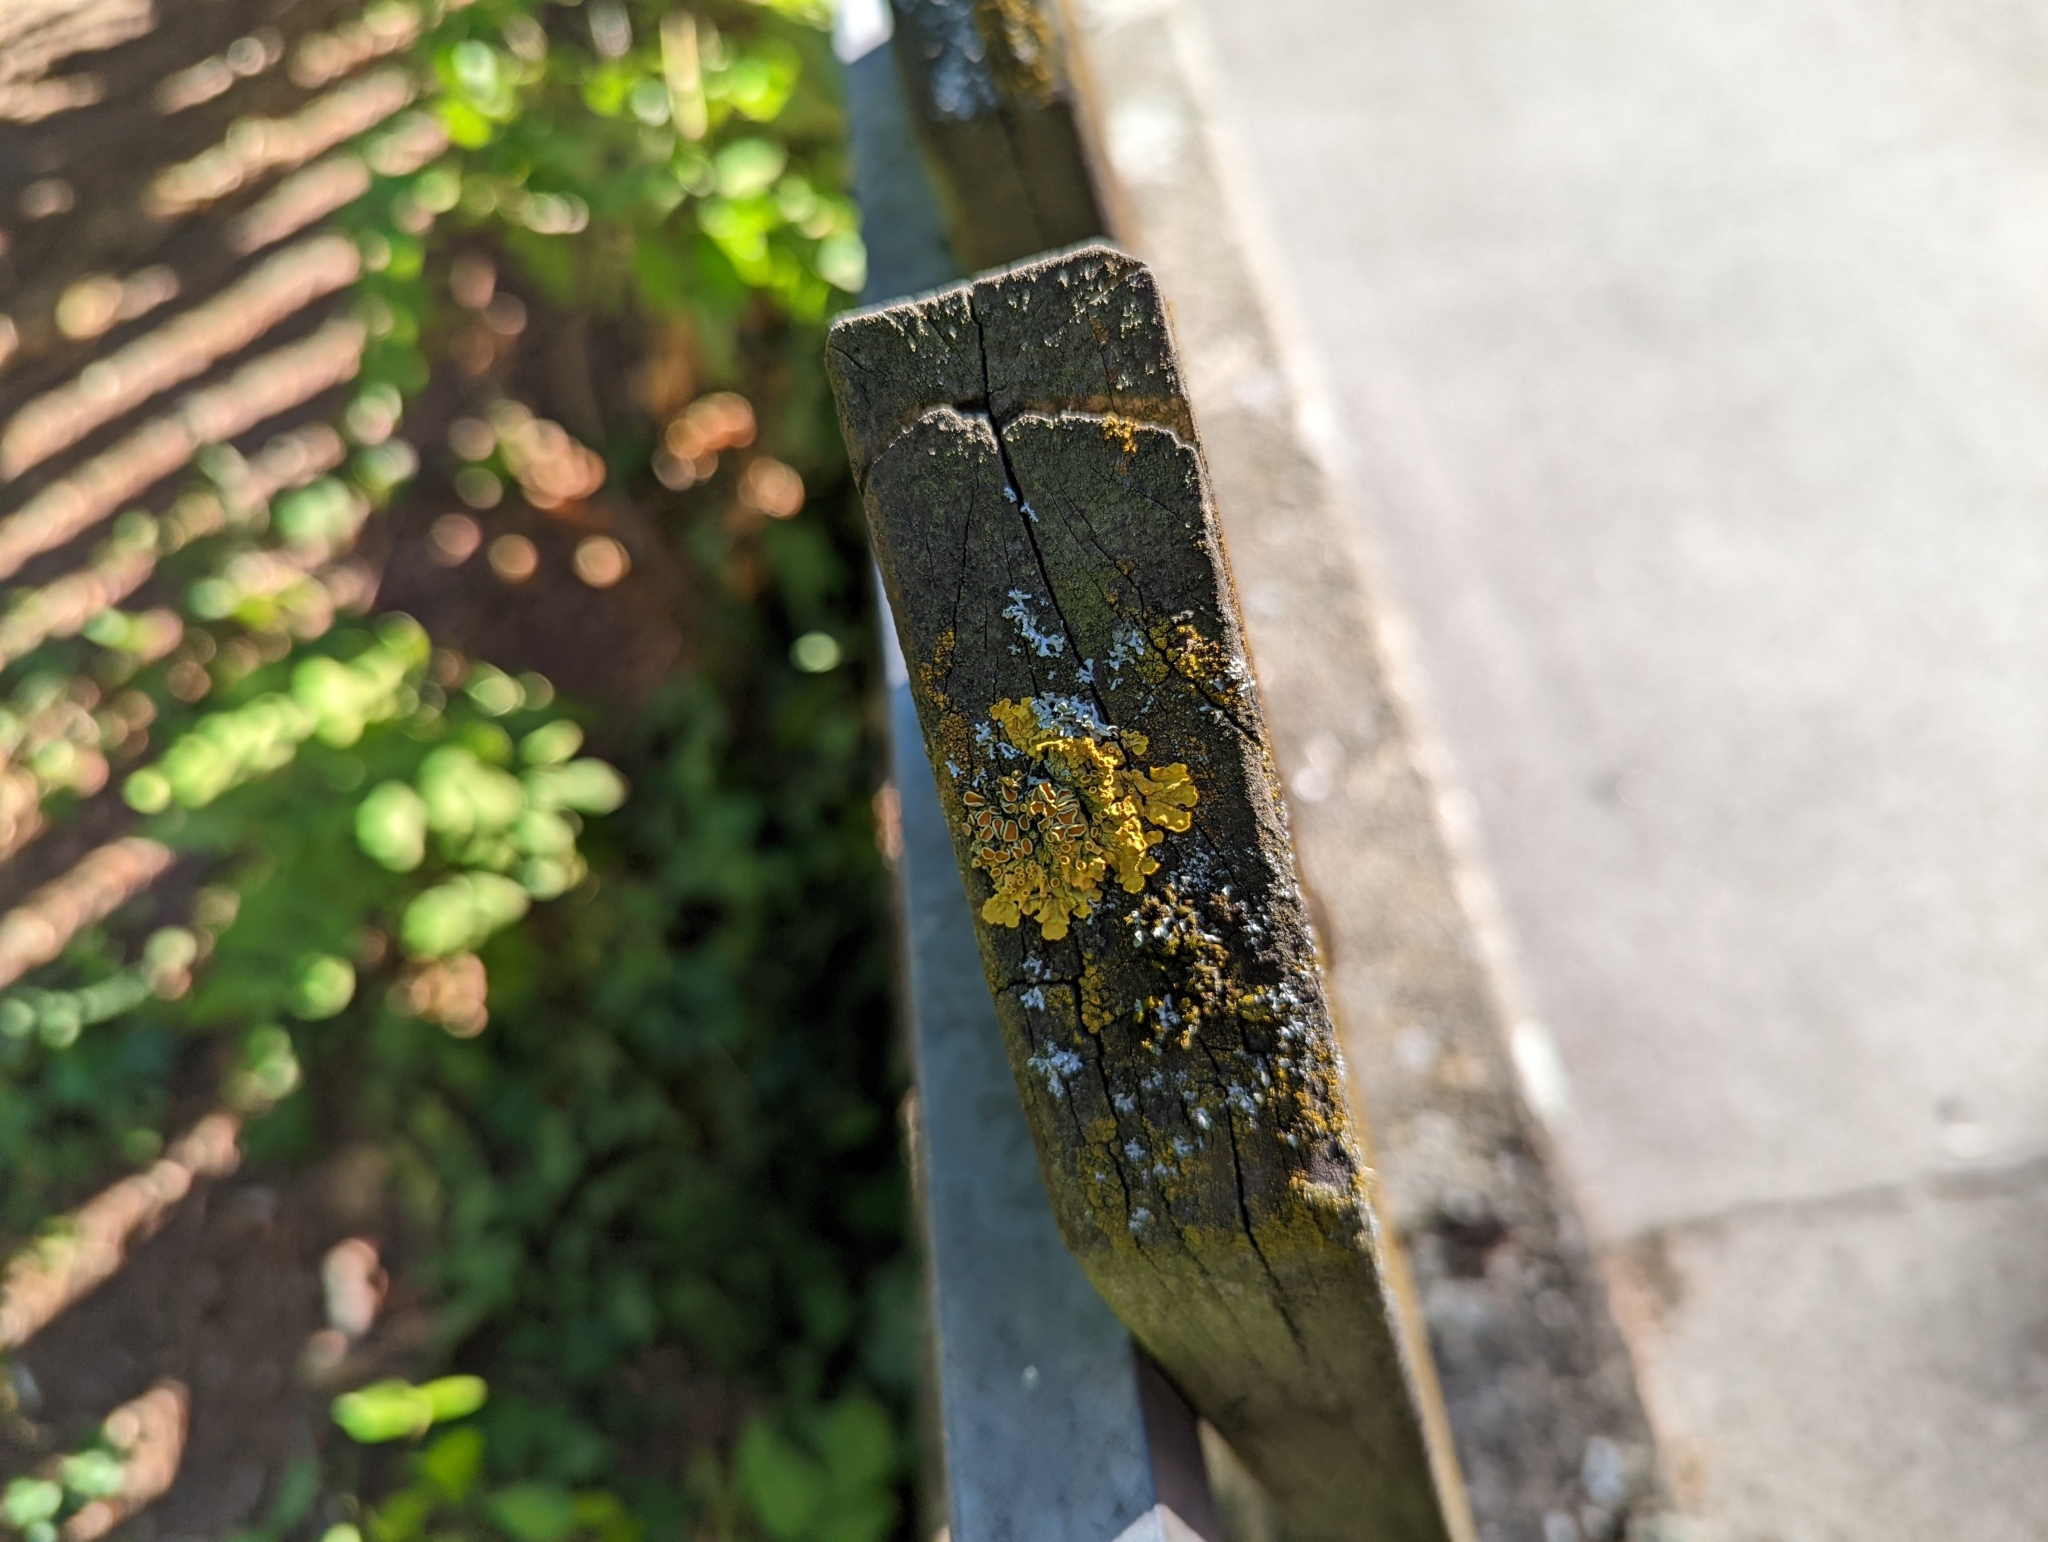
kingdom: Fungi
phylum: Ascomycota
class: Lecanoromycetes
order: Teloschistales
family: Teloschistaceae
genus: Xanthoria
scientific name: Xanthoria parietina
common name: Common orange lichen
